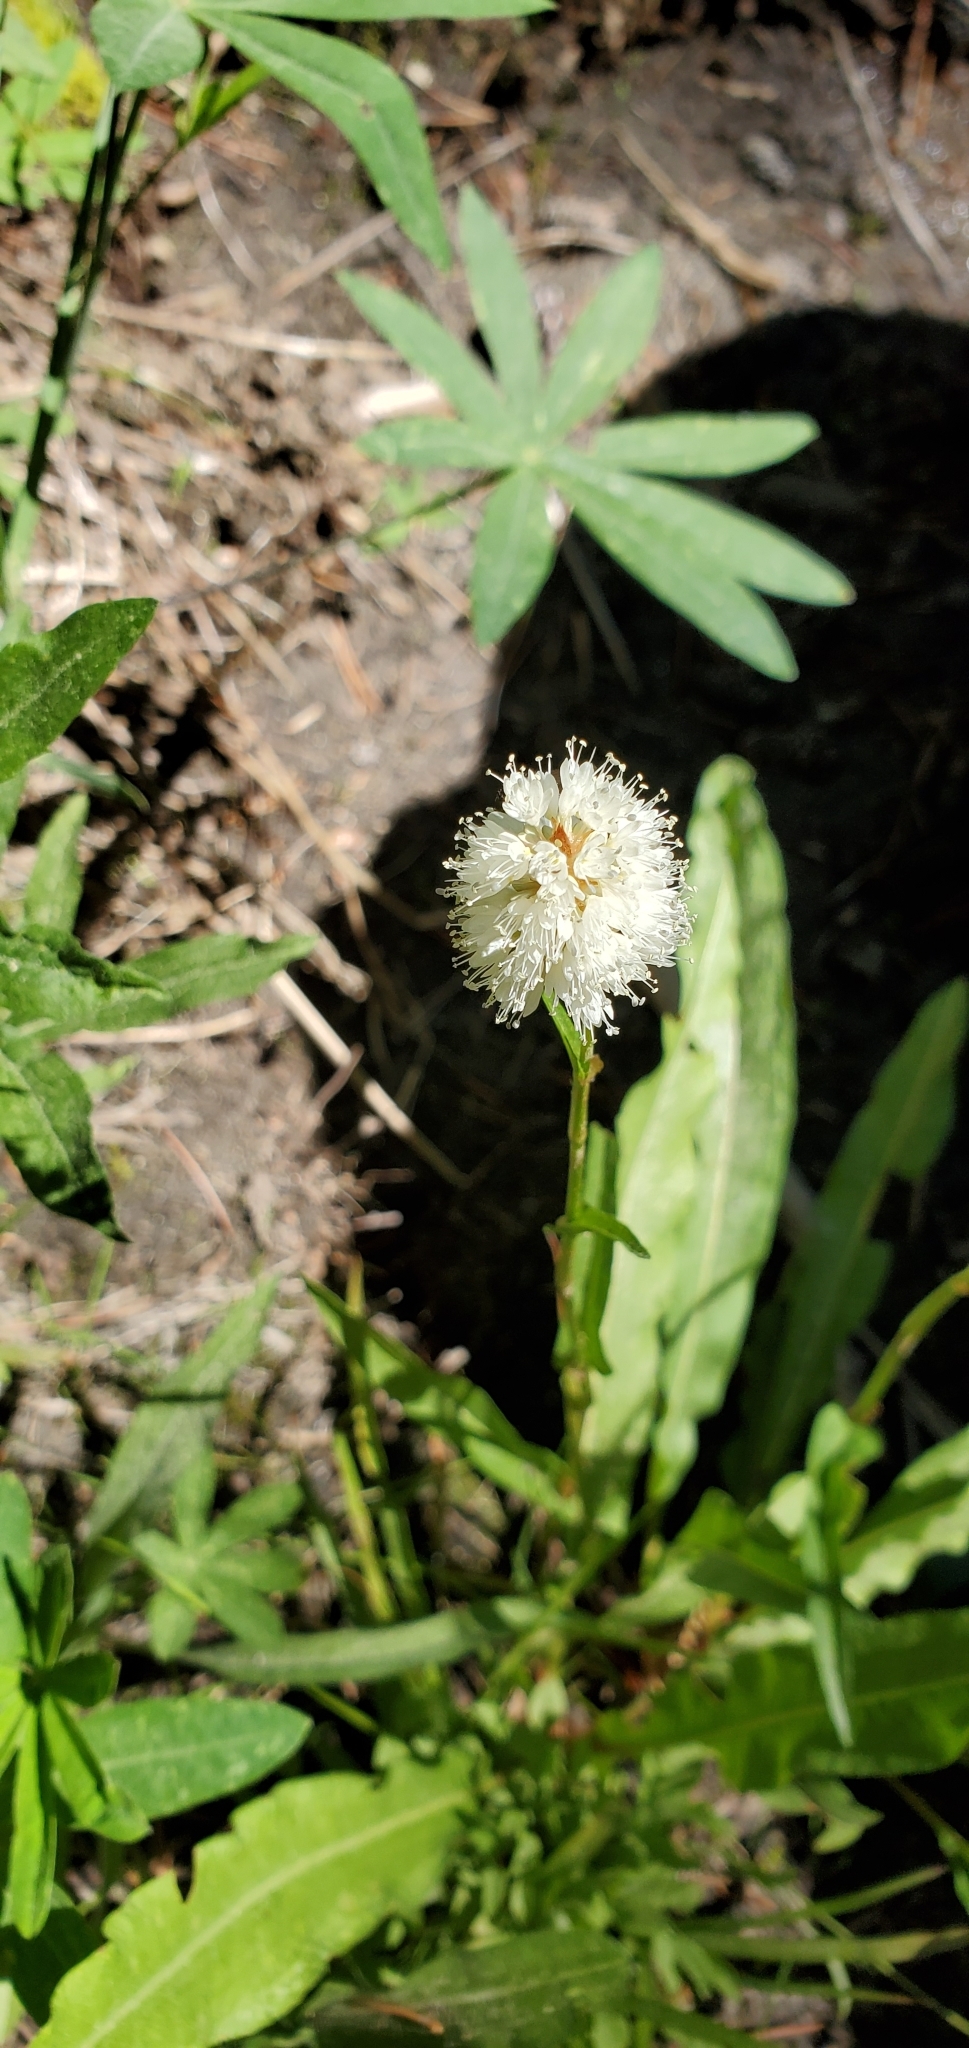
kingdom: Plantae
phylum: Tracheophyta
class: Magnoliopsida
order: Caryophyllales
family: Polygonaceae
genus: Bistorta
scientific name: Bistorta bistortoides
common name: American bistort
